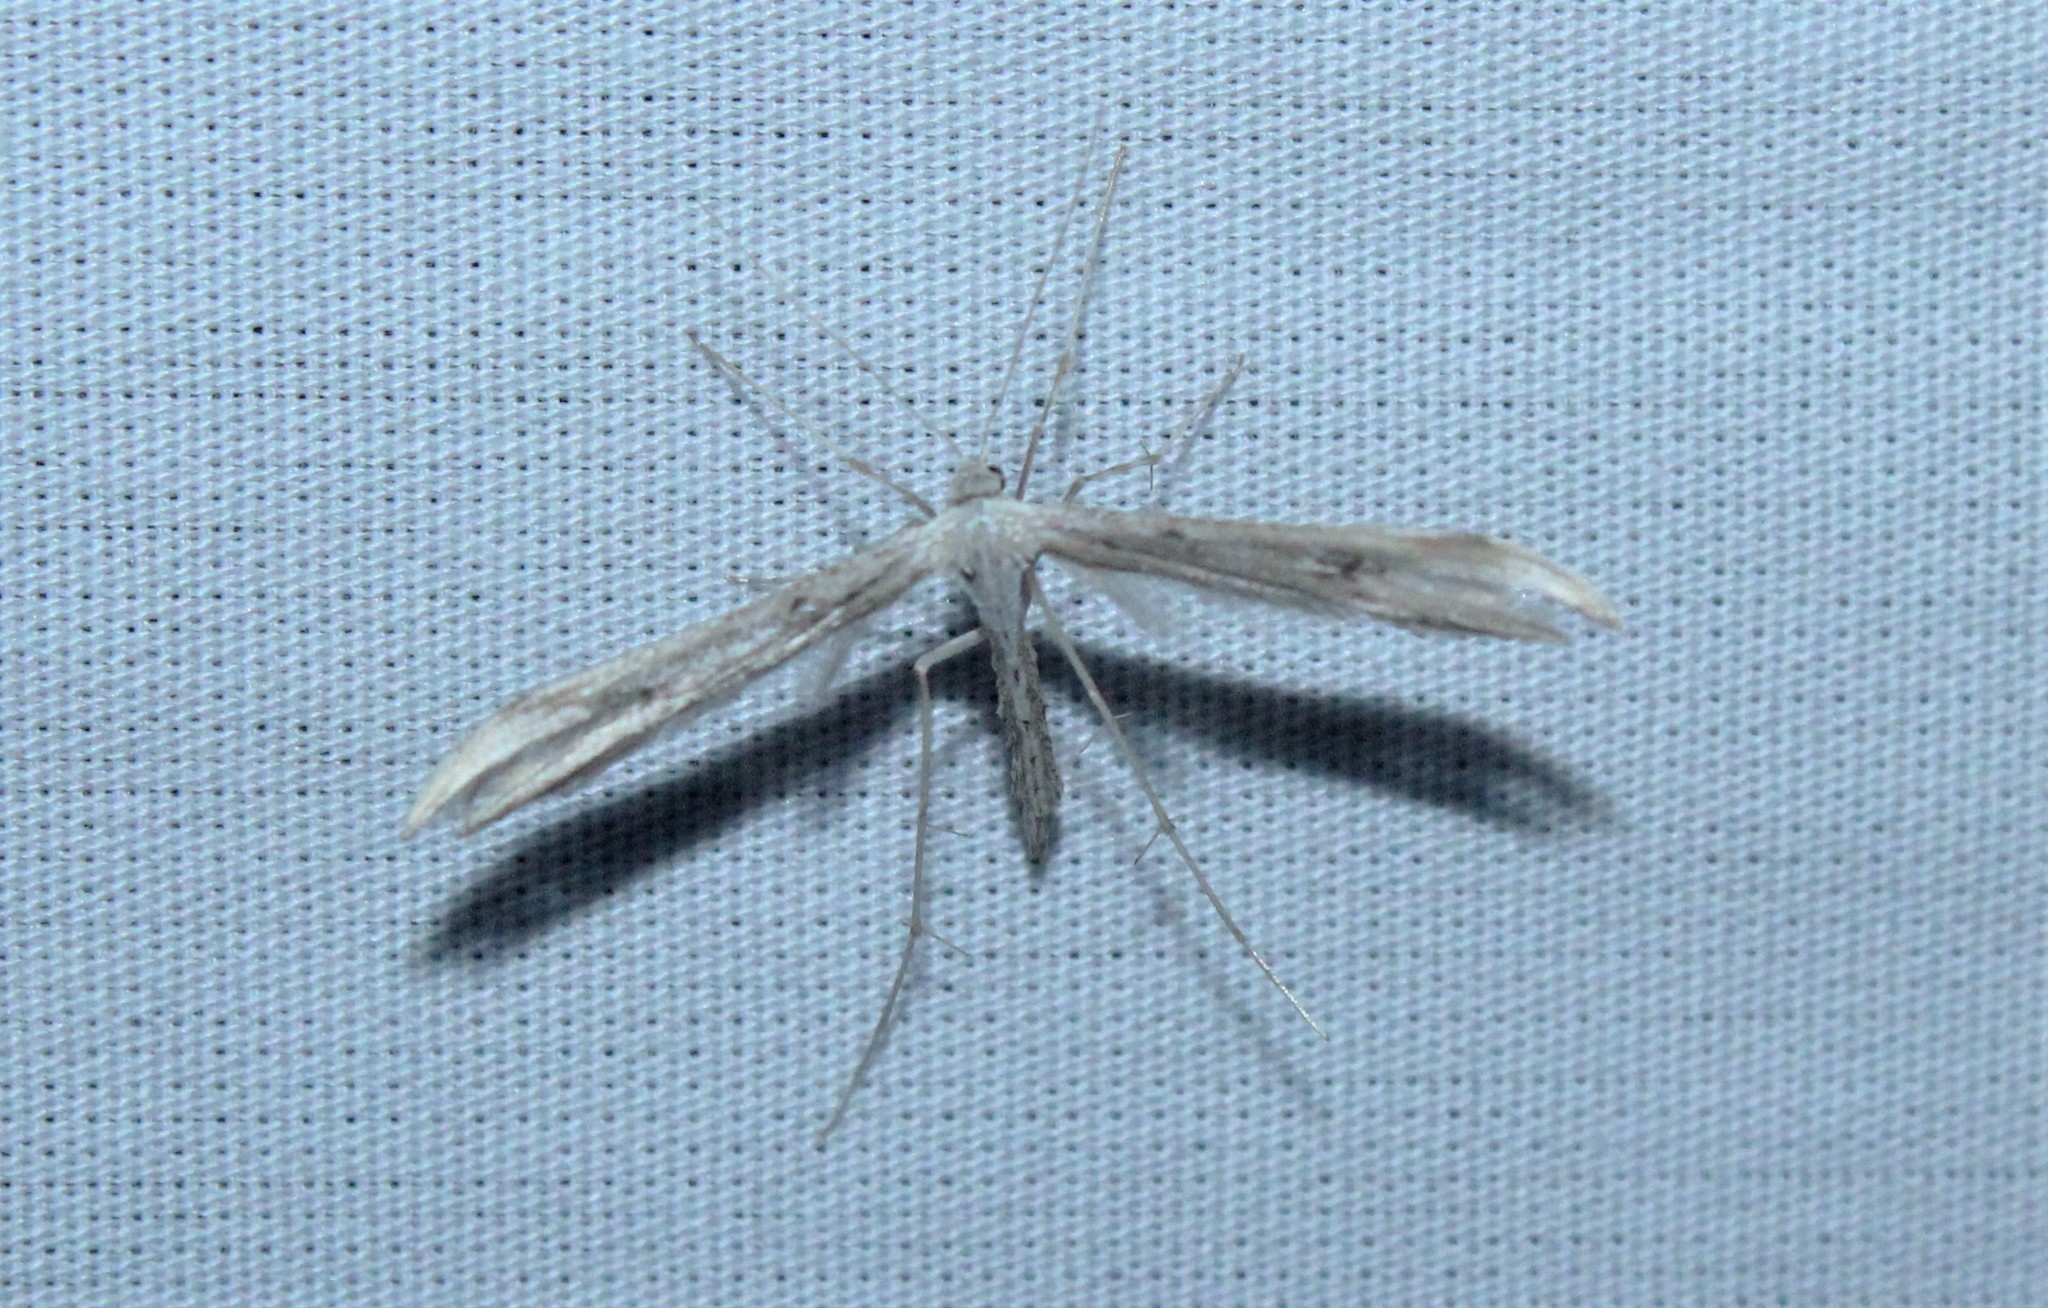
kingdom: Animalia
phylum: Arthropoda
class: Insecta
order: Lepidoptera
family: Pterophoridae
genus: Emmelina
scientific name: Emmelina monodactyla
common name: Common plume
